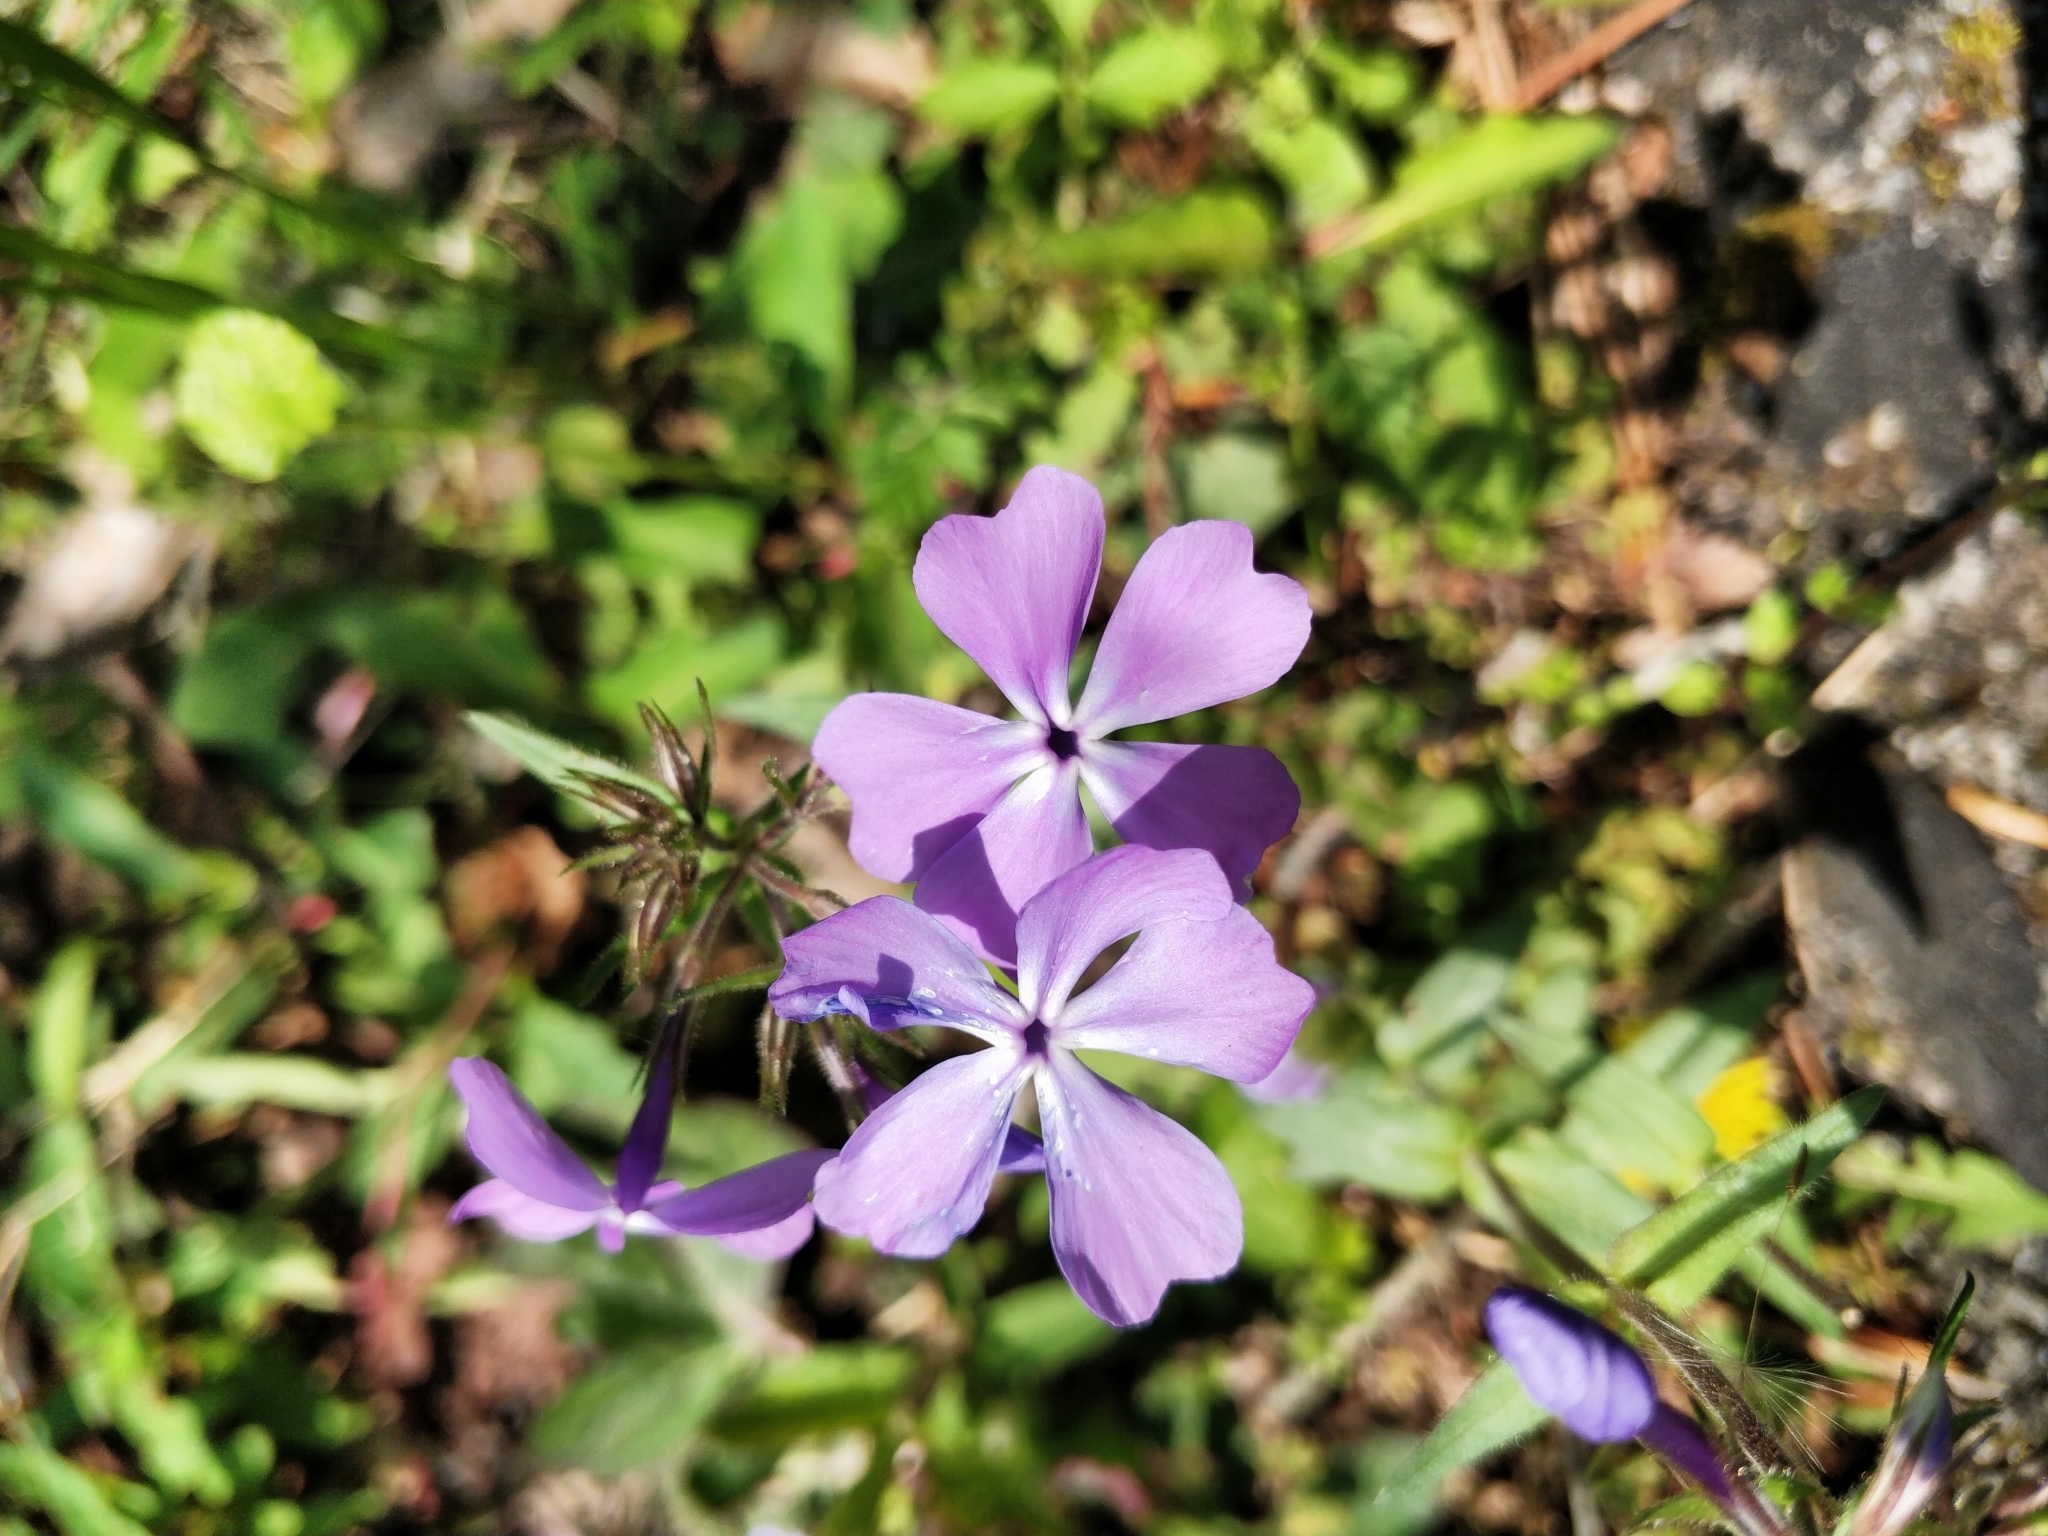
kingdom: Plantae
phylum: Tracheophyta
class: Magnoliopsida
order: Ericales
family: Polemoniaceae
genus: Phlox
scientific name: Phlox divaricata
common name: Blue phlox
